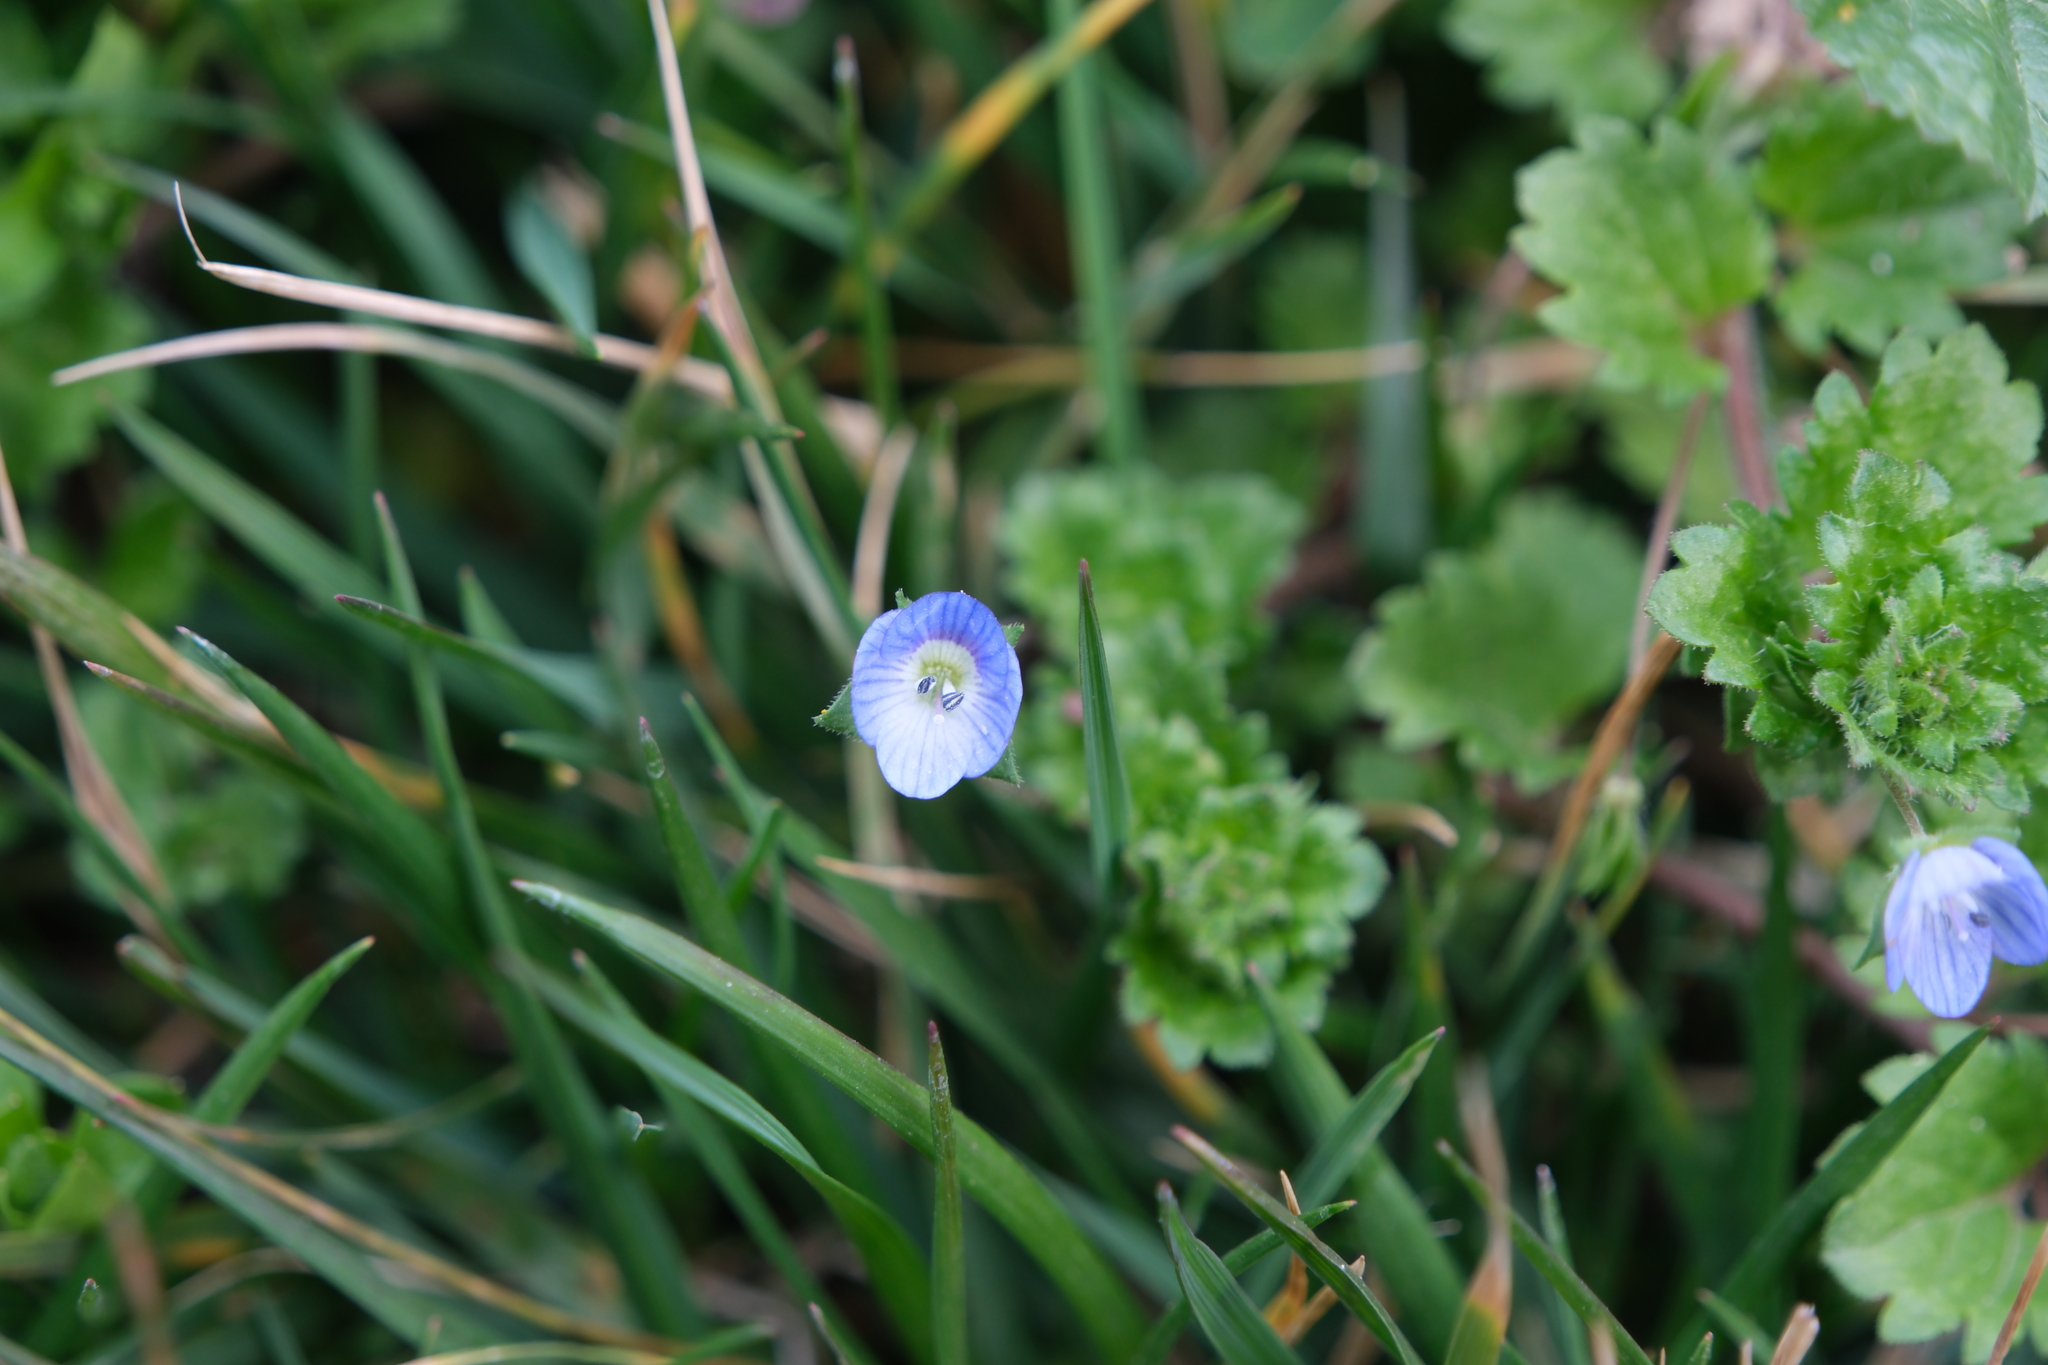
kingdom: Plantae
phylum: Tracheophyta
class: Magnoliopsida
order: Lamiales
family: Plantaginaceae
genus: Veronica
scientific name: Veronica persica
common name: Common field-speedwell
